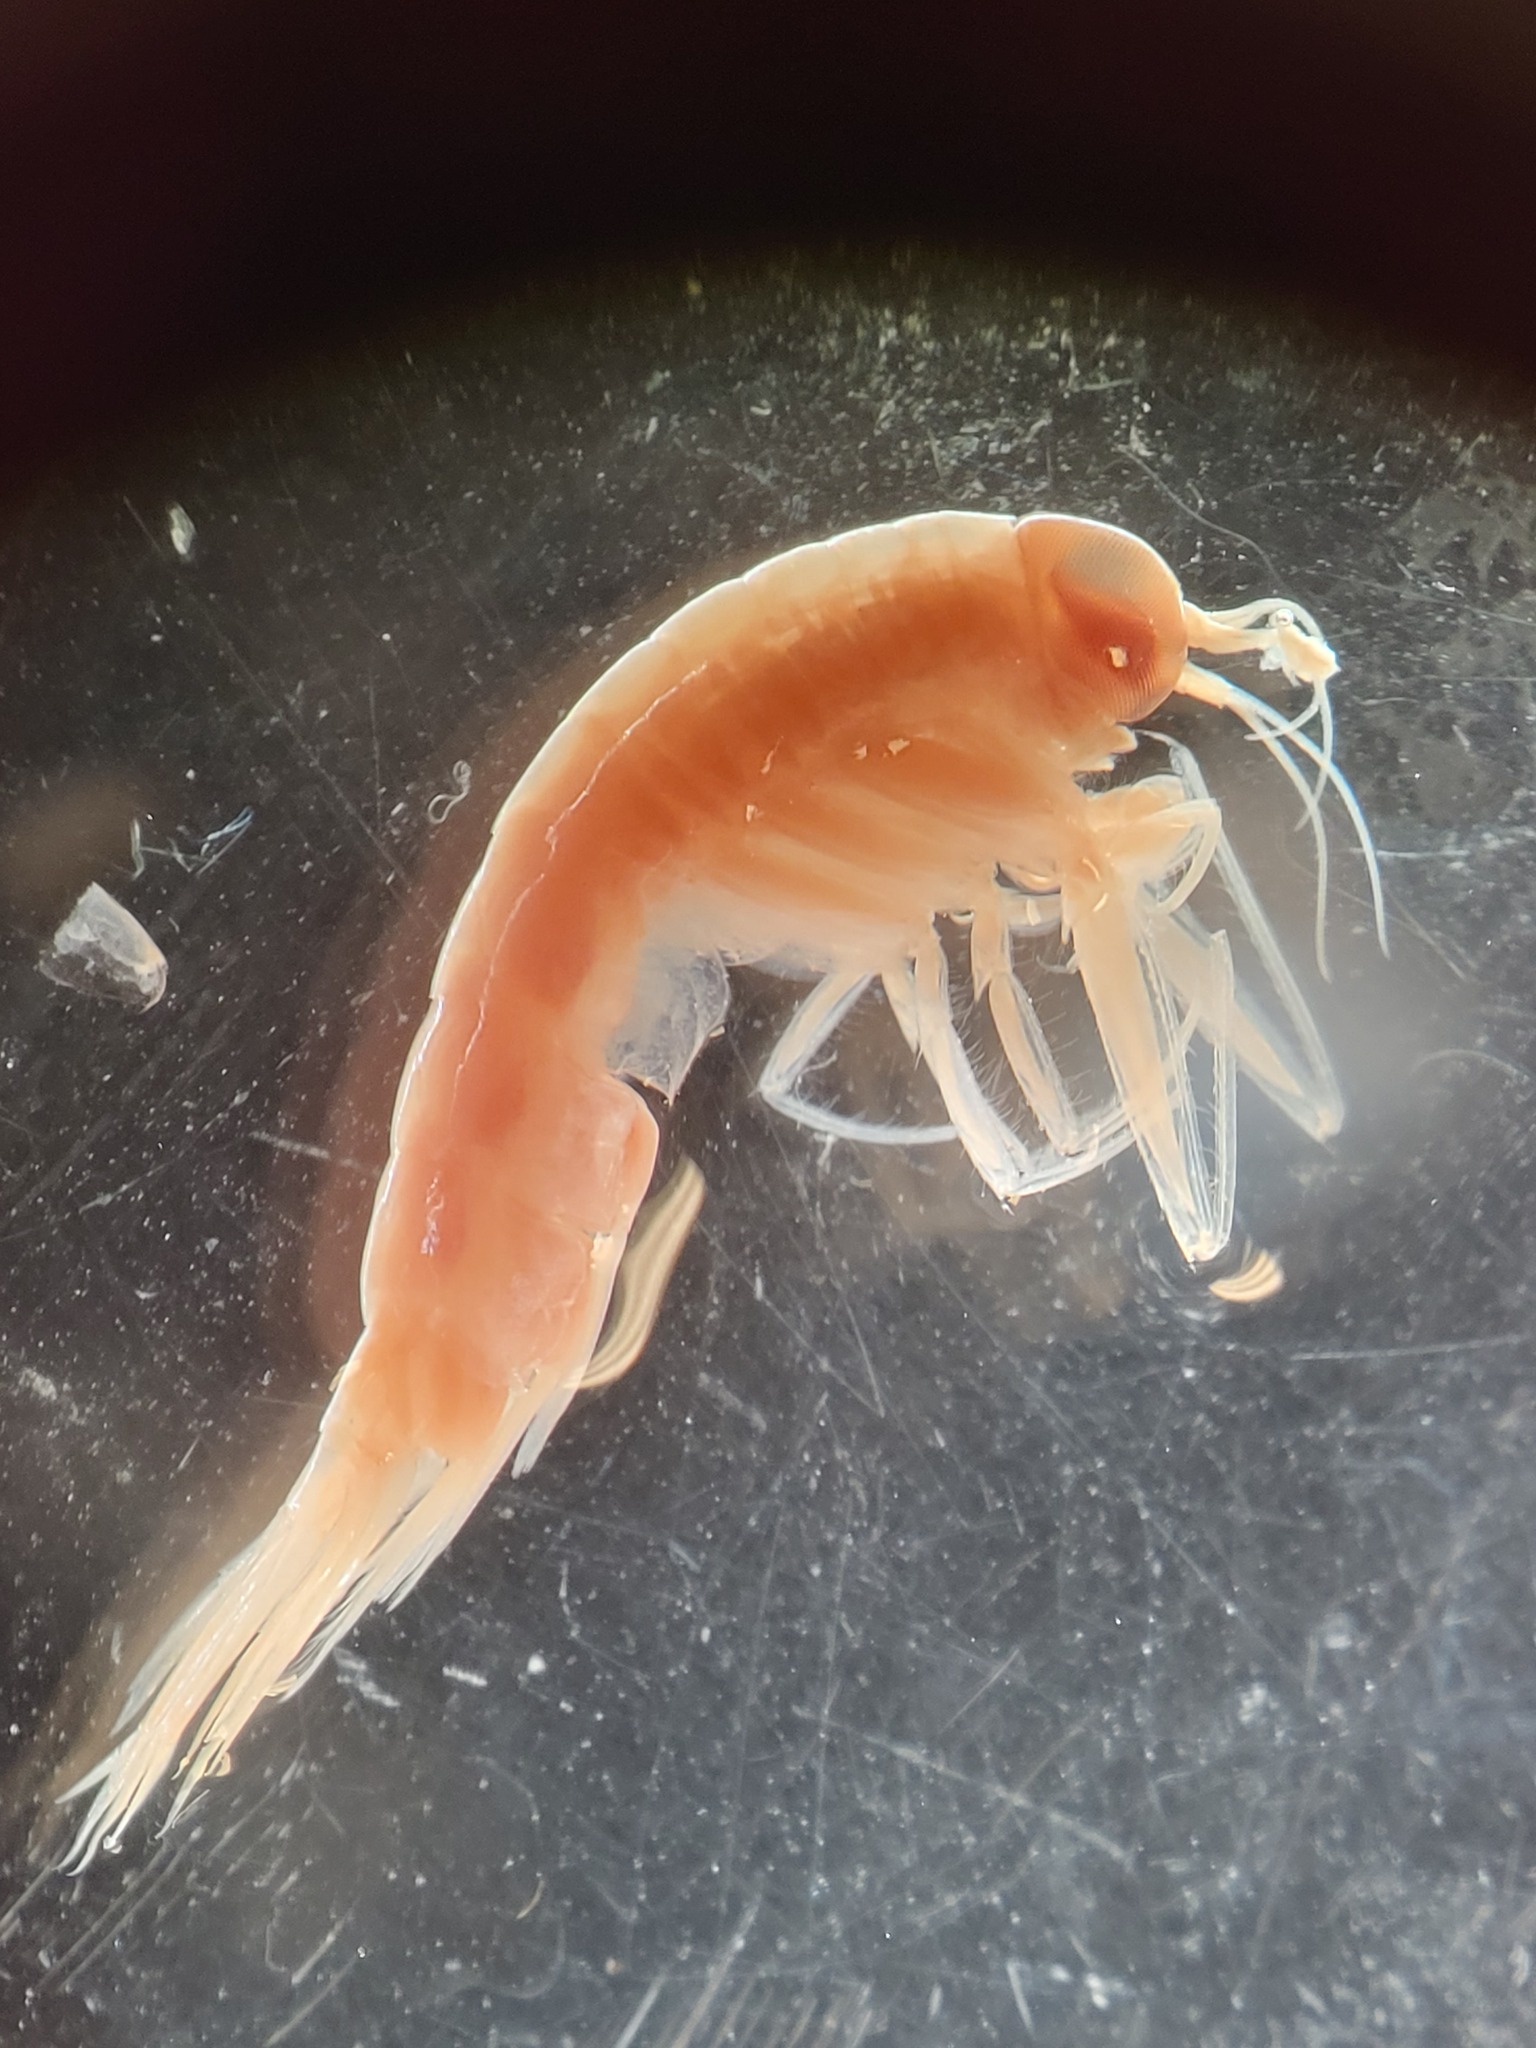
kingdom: Animalia
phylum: Arthropoda
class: Malacostraca
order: Amphipoda
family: Hyperiidae
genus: Themisto
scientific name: Themisto libellula
